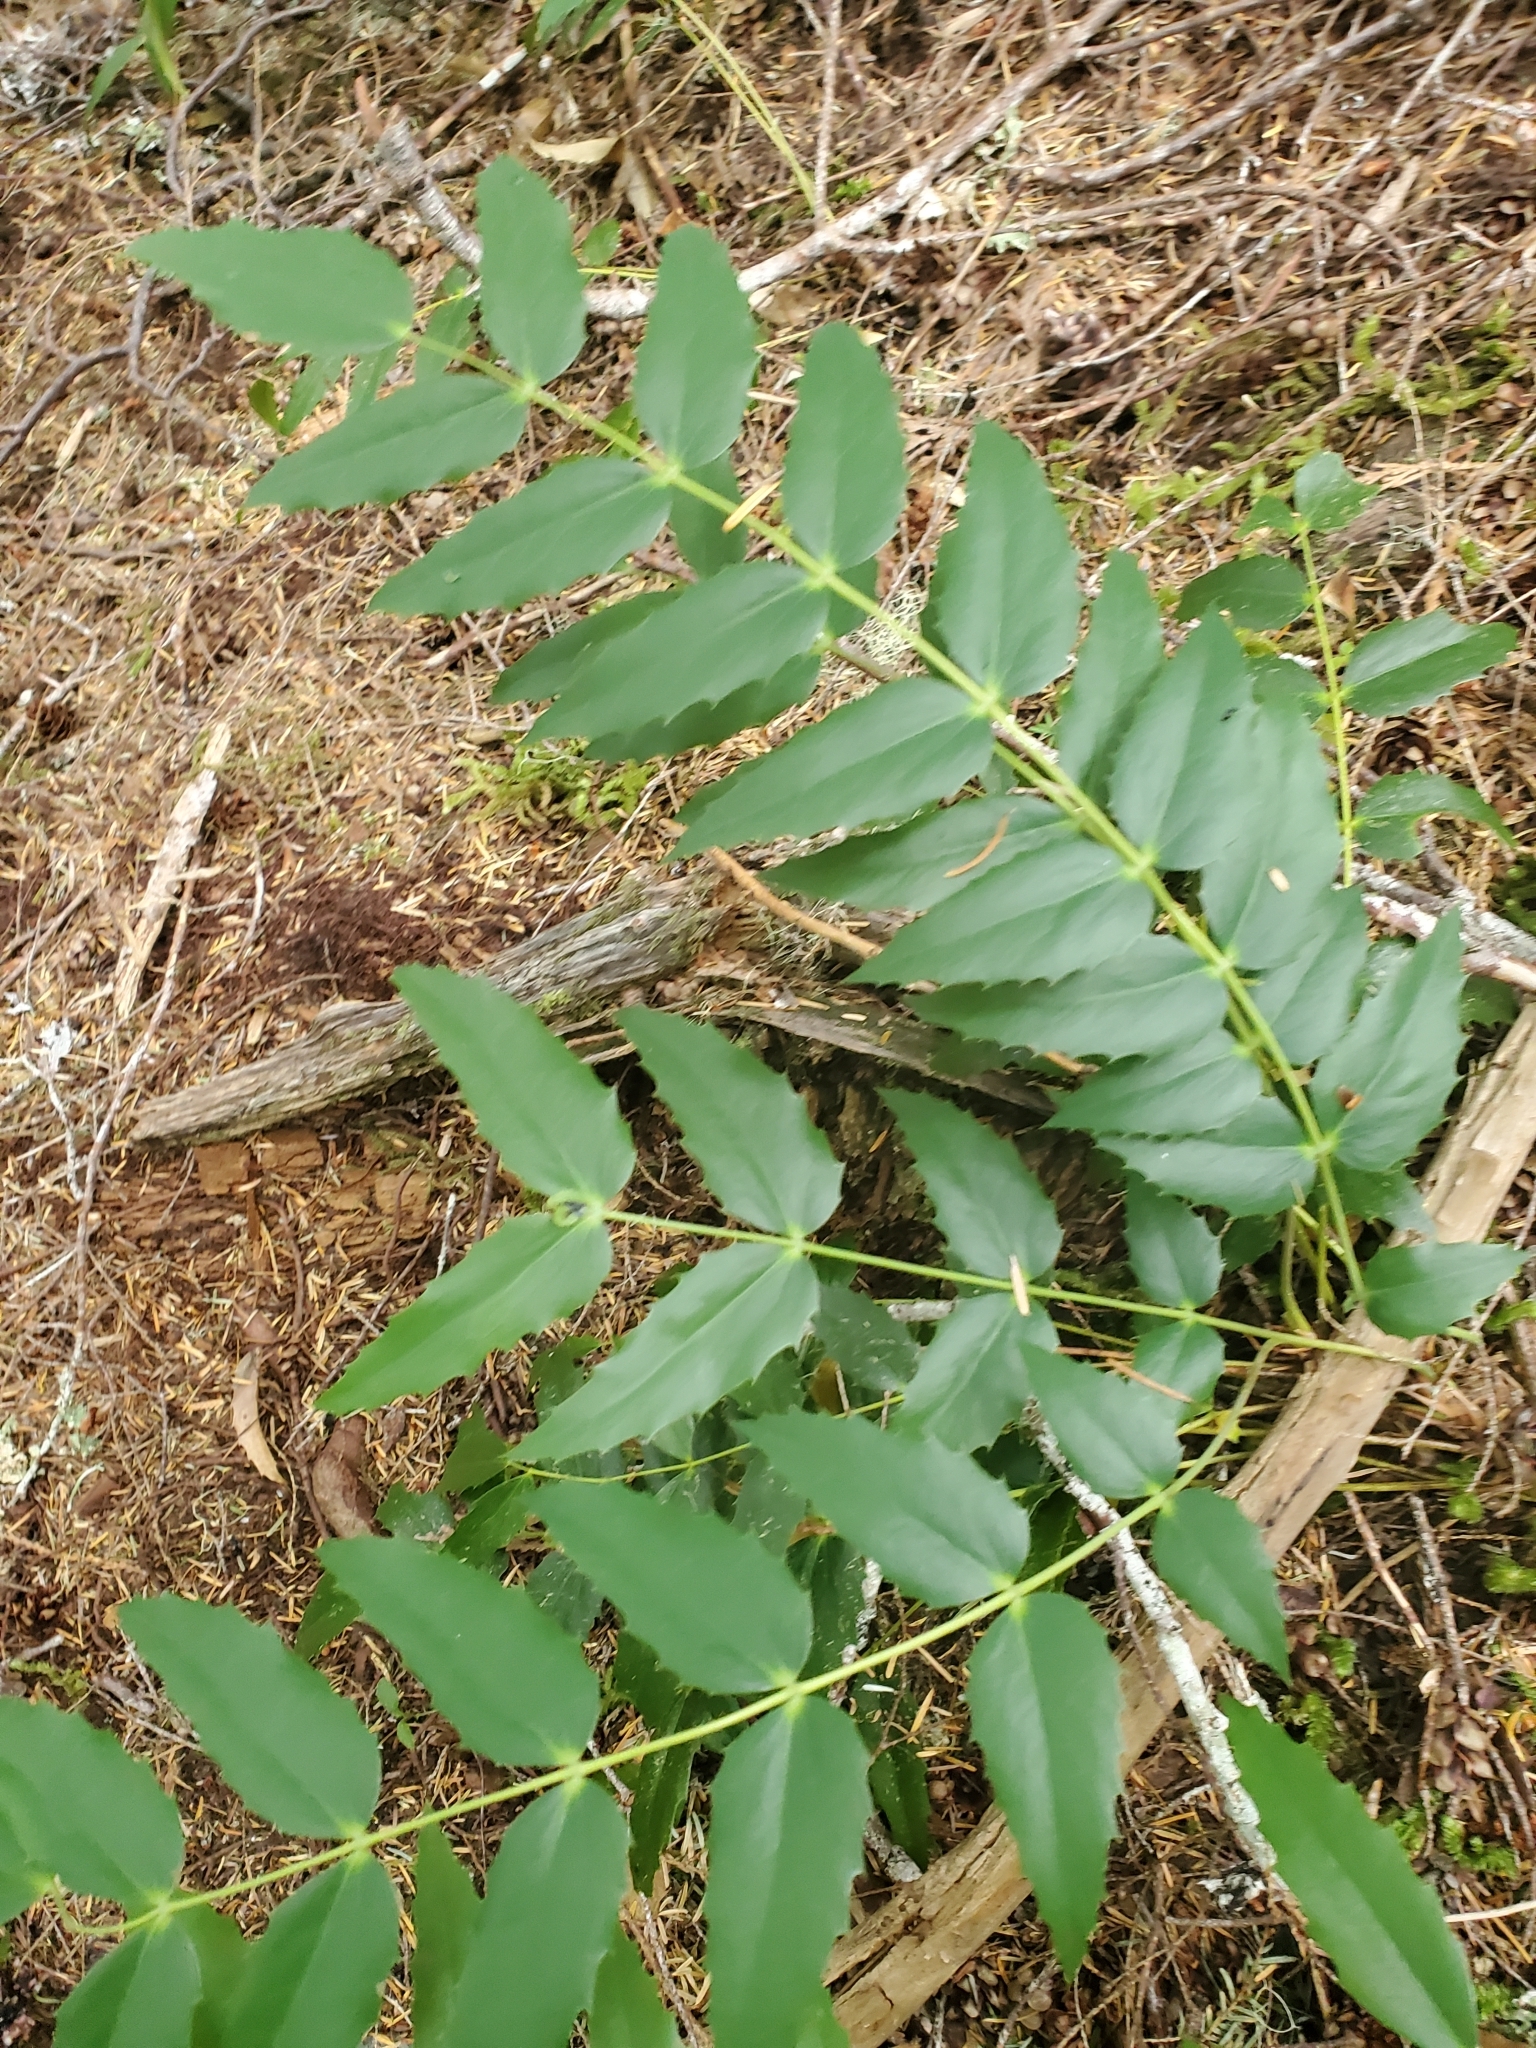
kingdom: Plantae
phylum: Tracheophyta
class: Magnoliopsida
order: Ranunculales
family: Berberidaceae
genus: Mahonia
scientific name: Mahonia nervosa
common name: Cascade oregon-grape
